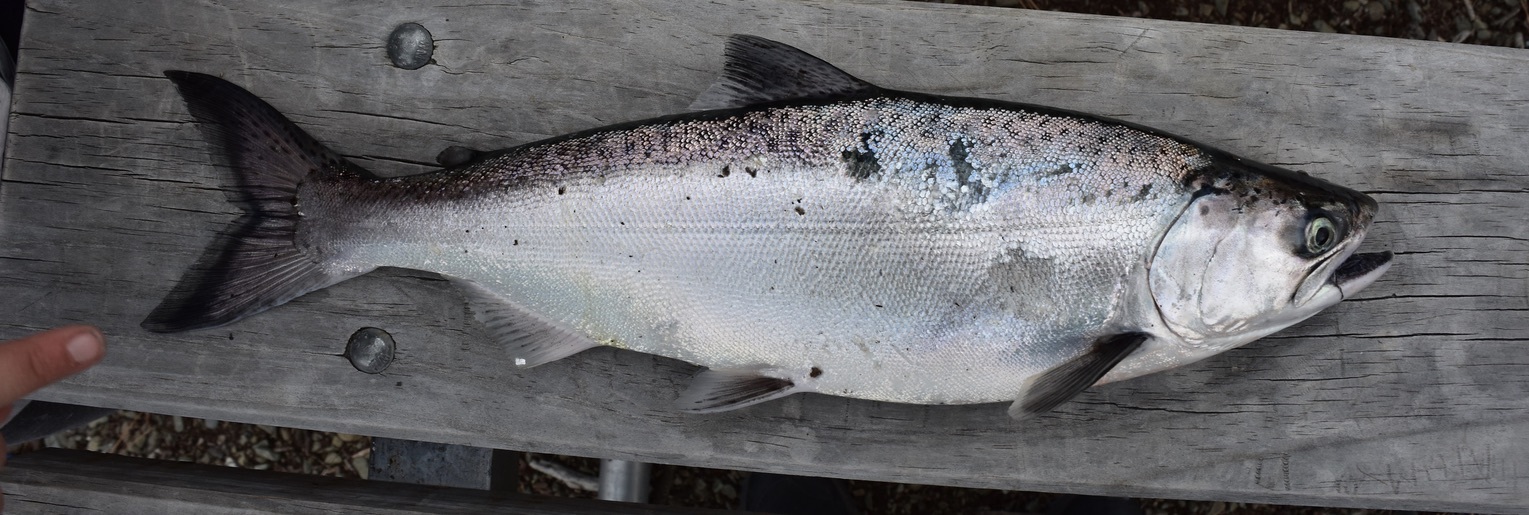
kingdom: Animalia
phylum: Chordata
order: Salmoniformes
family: Salmonidae
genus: Oncorhynchus
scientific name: Oncorhynchus tshawytscha
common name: Chinook salmon
